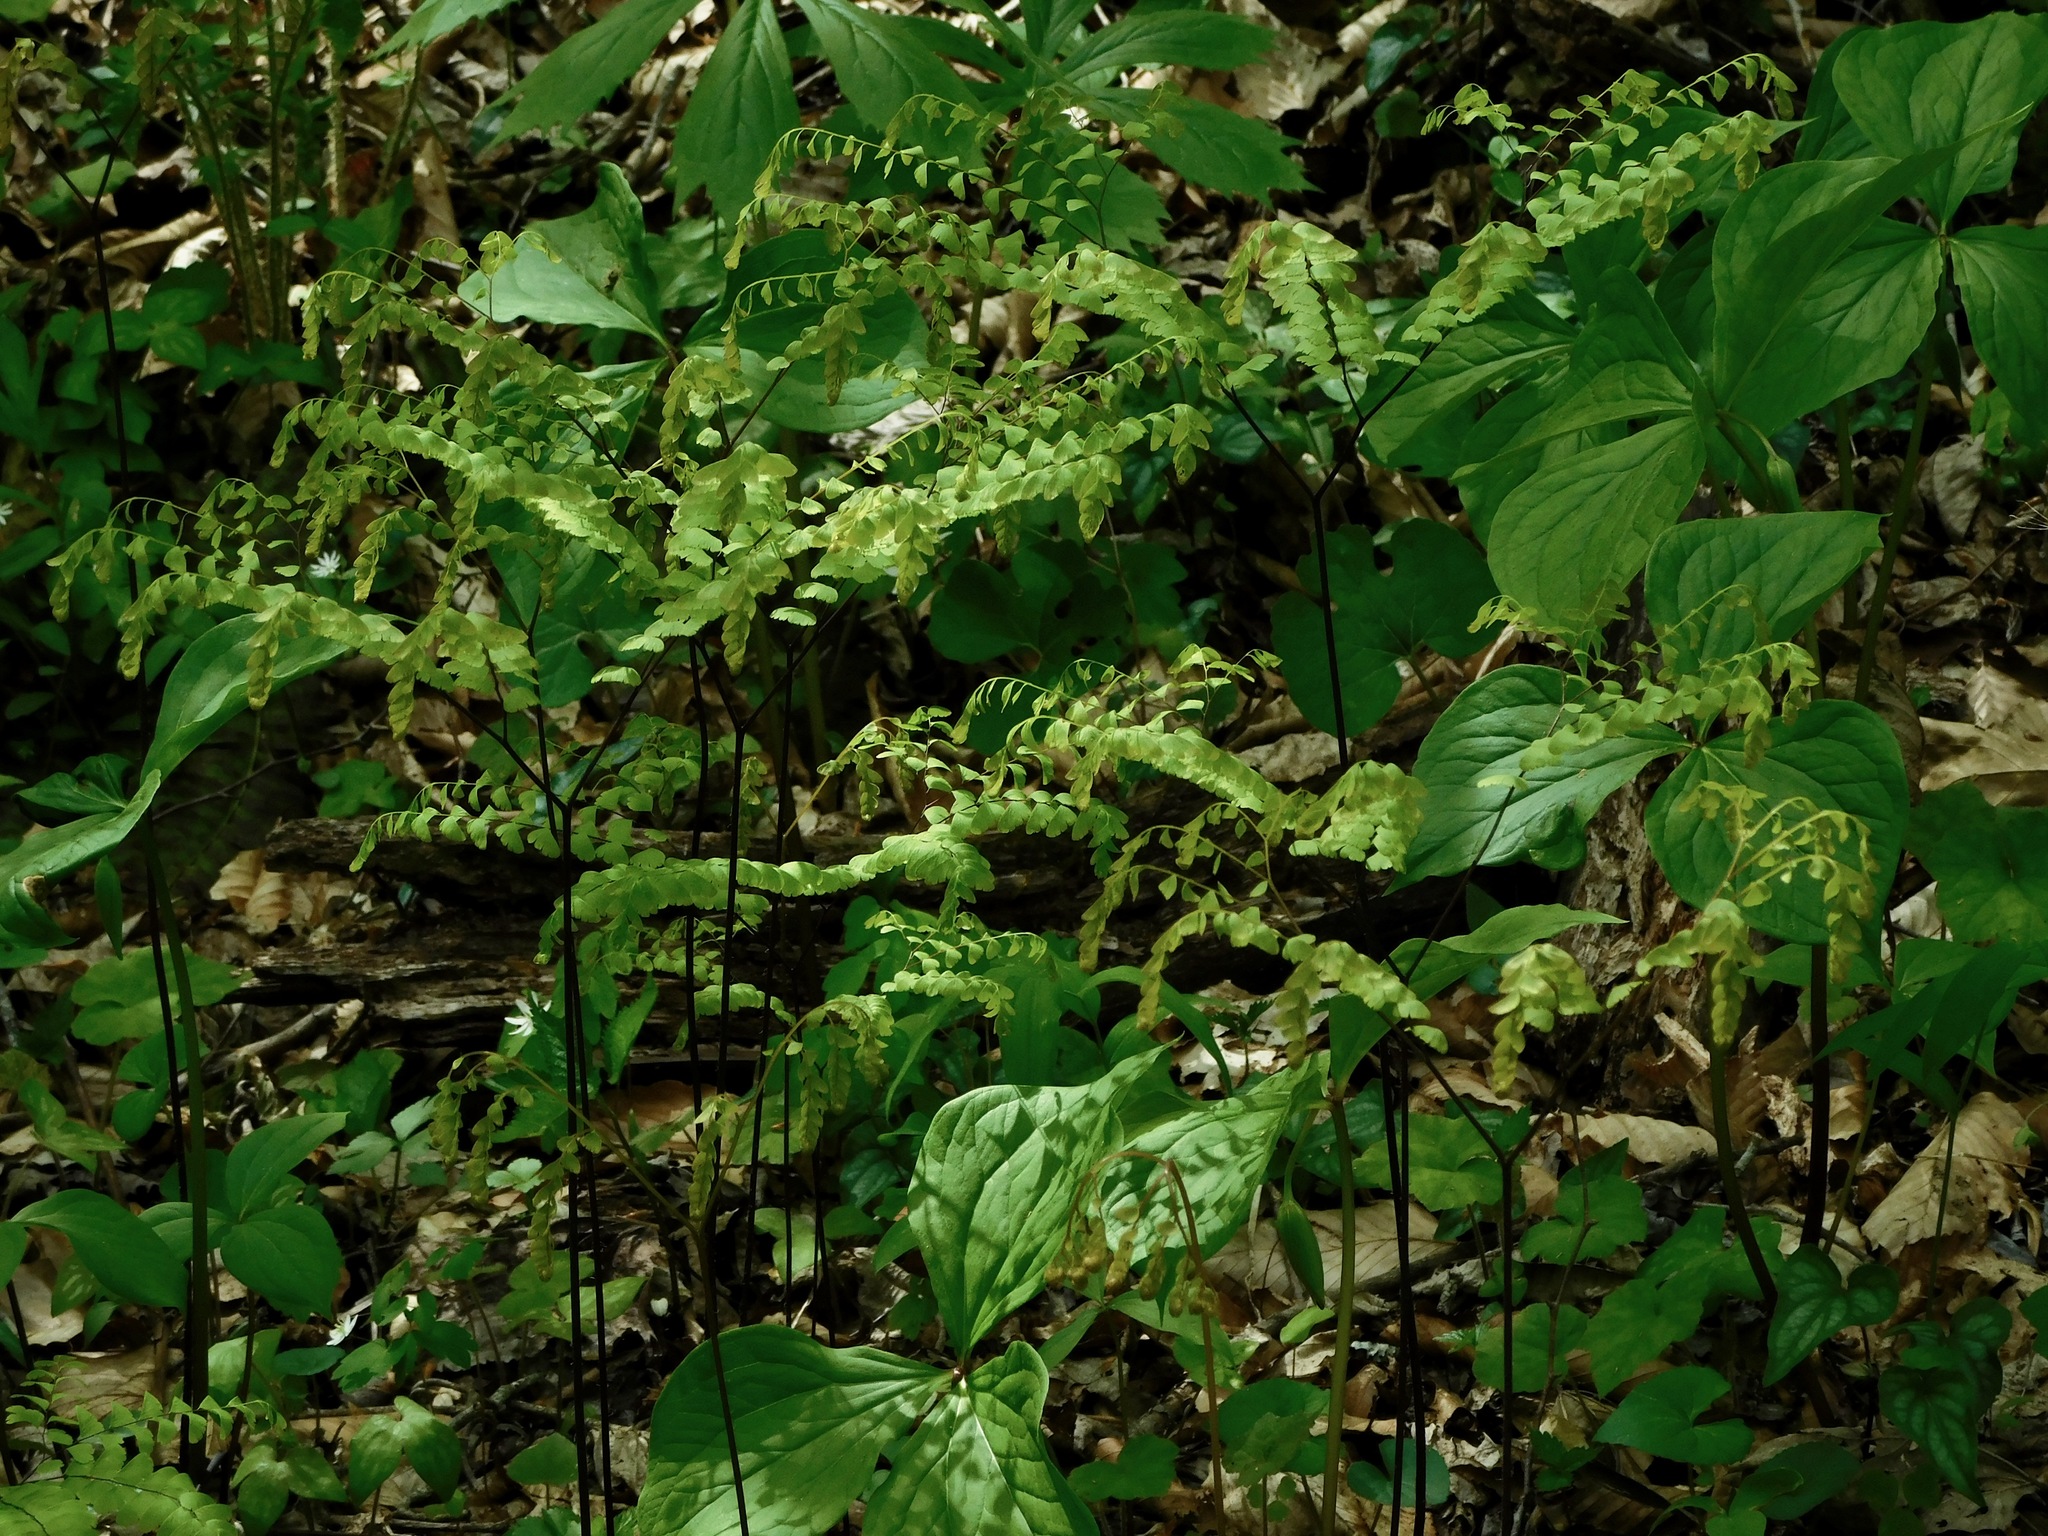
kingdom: Plantae
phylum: Tracheophyta
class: Polypodiopsida
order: Polypodiales
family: Pteridaceae
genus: Adiantum
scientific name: Adiantum pedatum
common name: Five-finger fern
